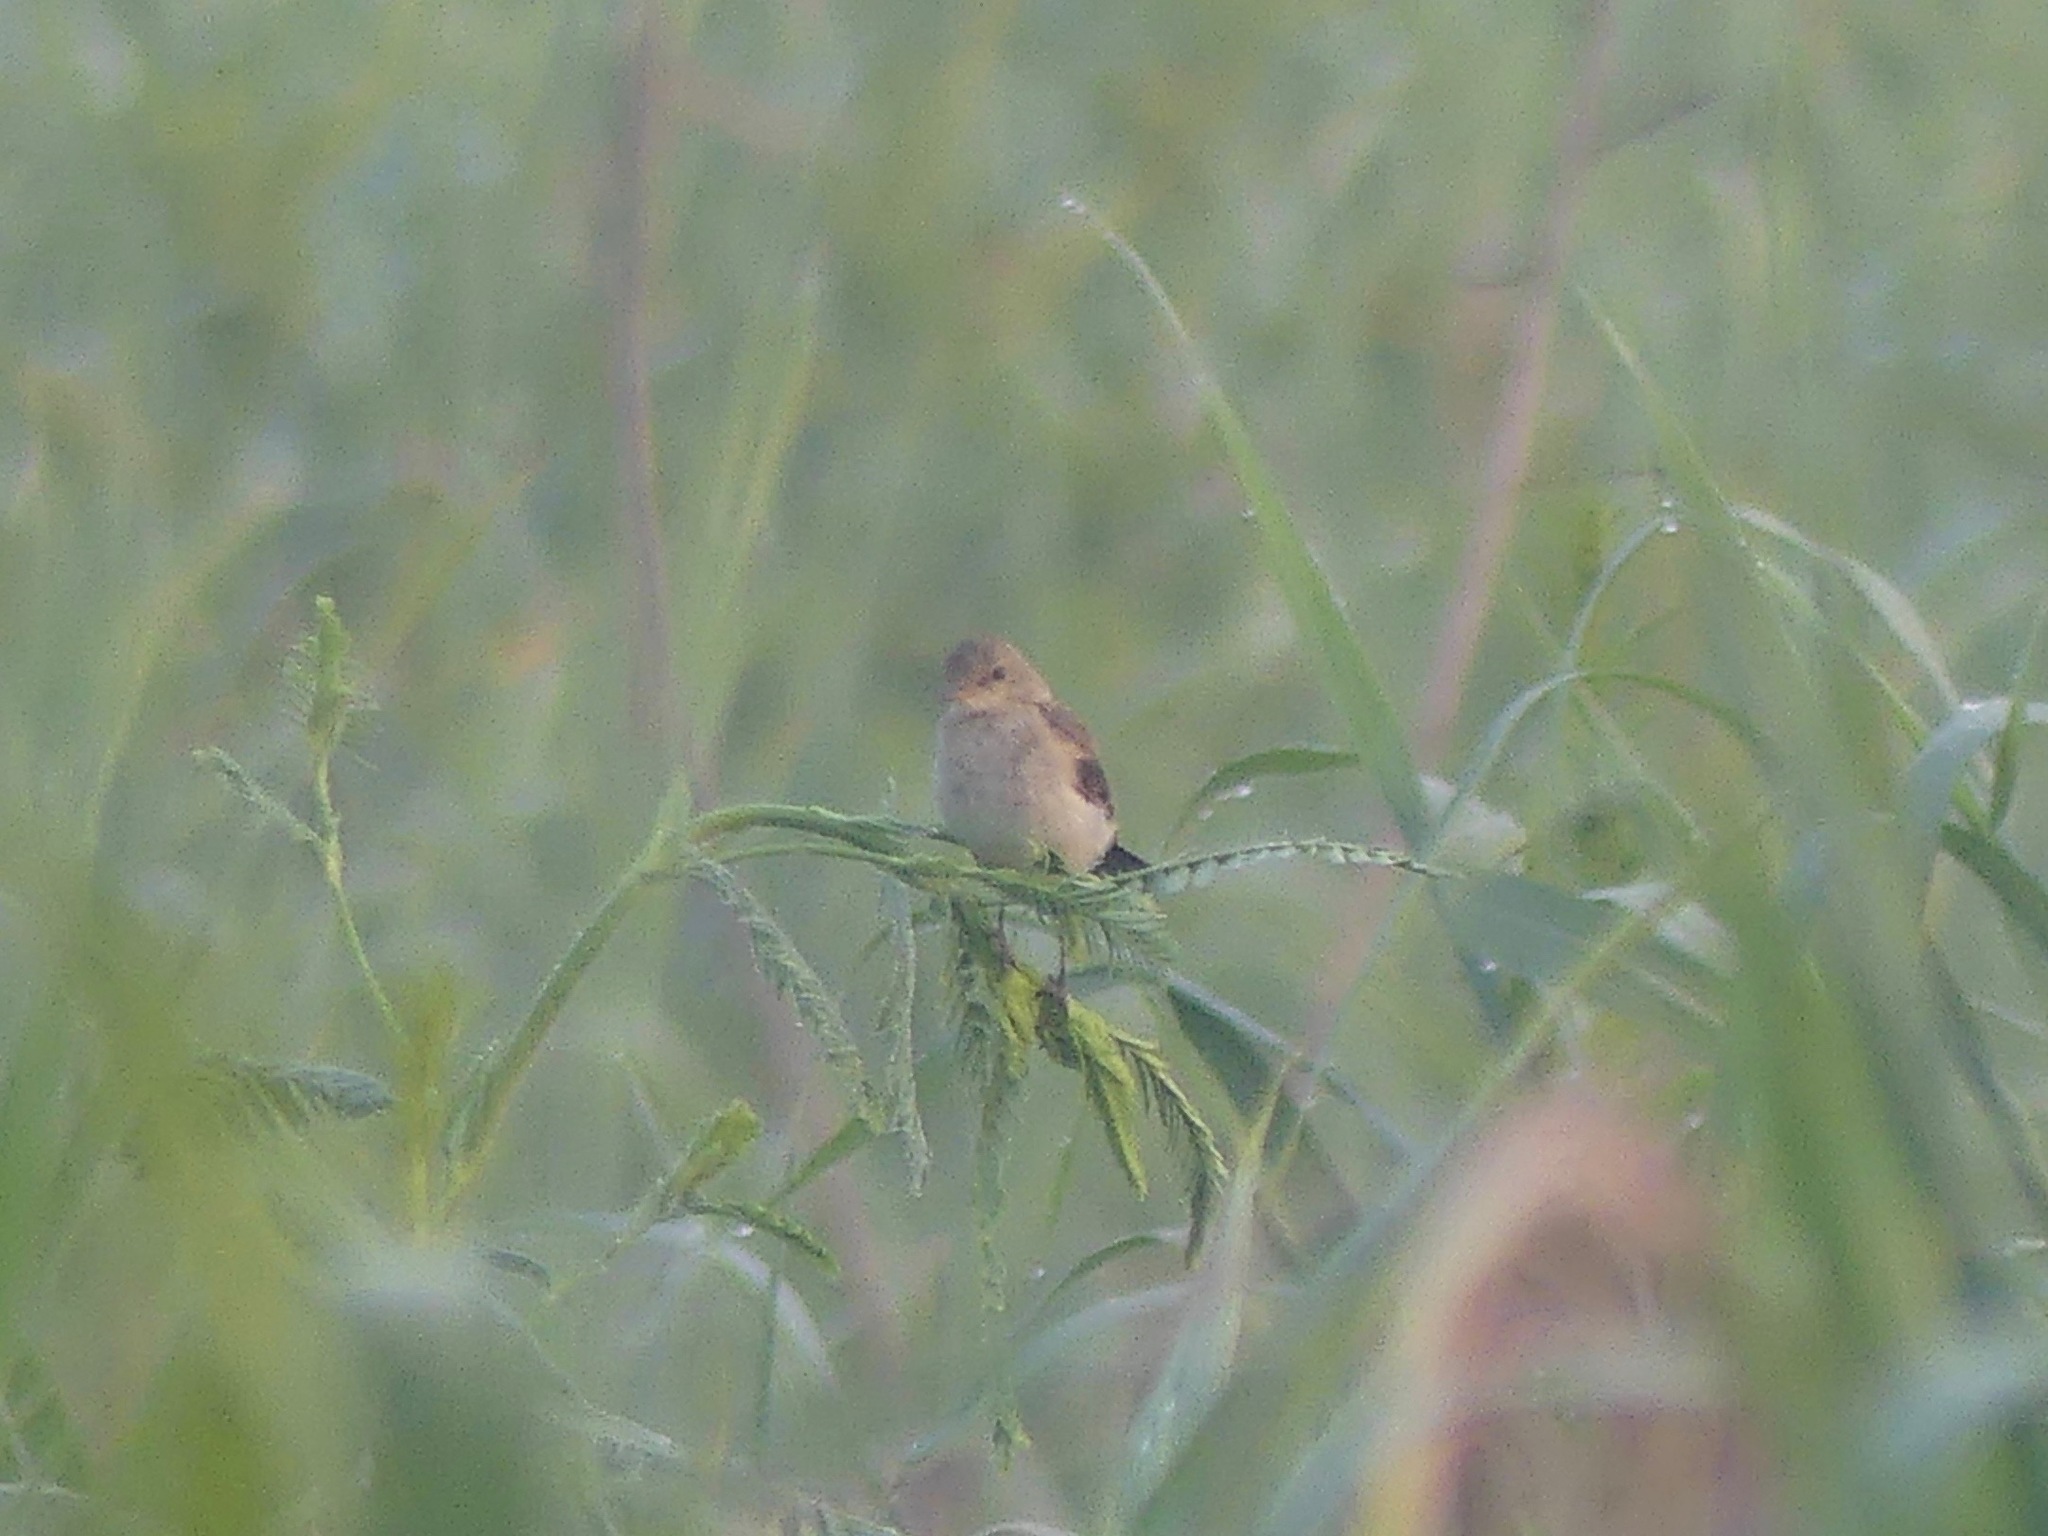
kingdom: Animalia
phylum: Chordata
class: Aves
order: Passeriformes
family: Tyrannidae
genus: Muscisaxicola
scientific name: Muscisaxicola fluviatilis
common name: Little ground tyrant
